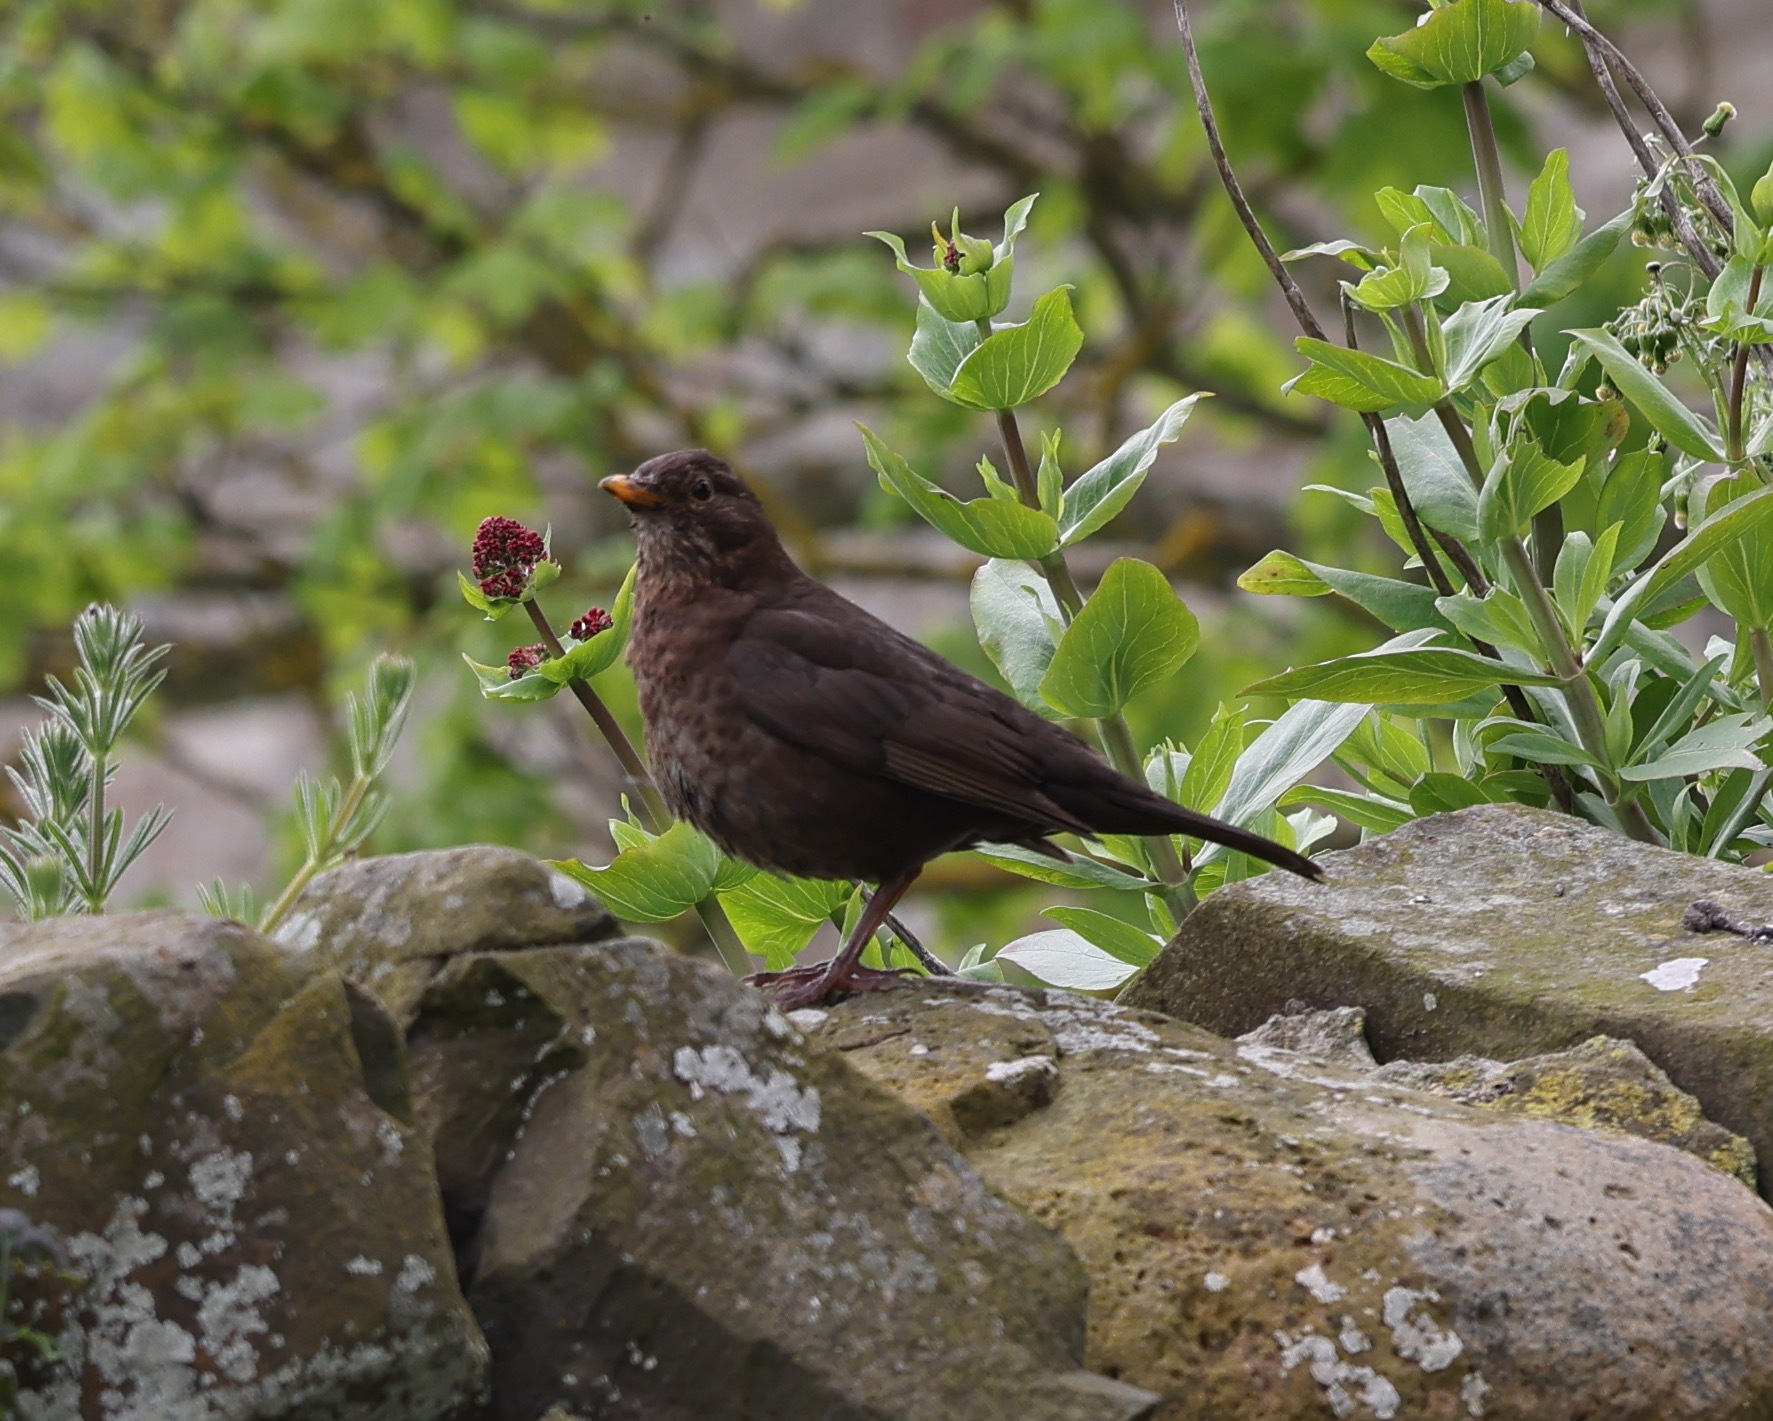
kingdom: Animalia
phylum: Chordata
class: Aves
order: Passeriformes
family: Turdidae
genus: Turdus
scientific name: Turdus merula
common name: Common blackbird
